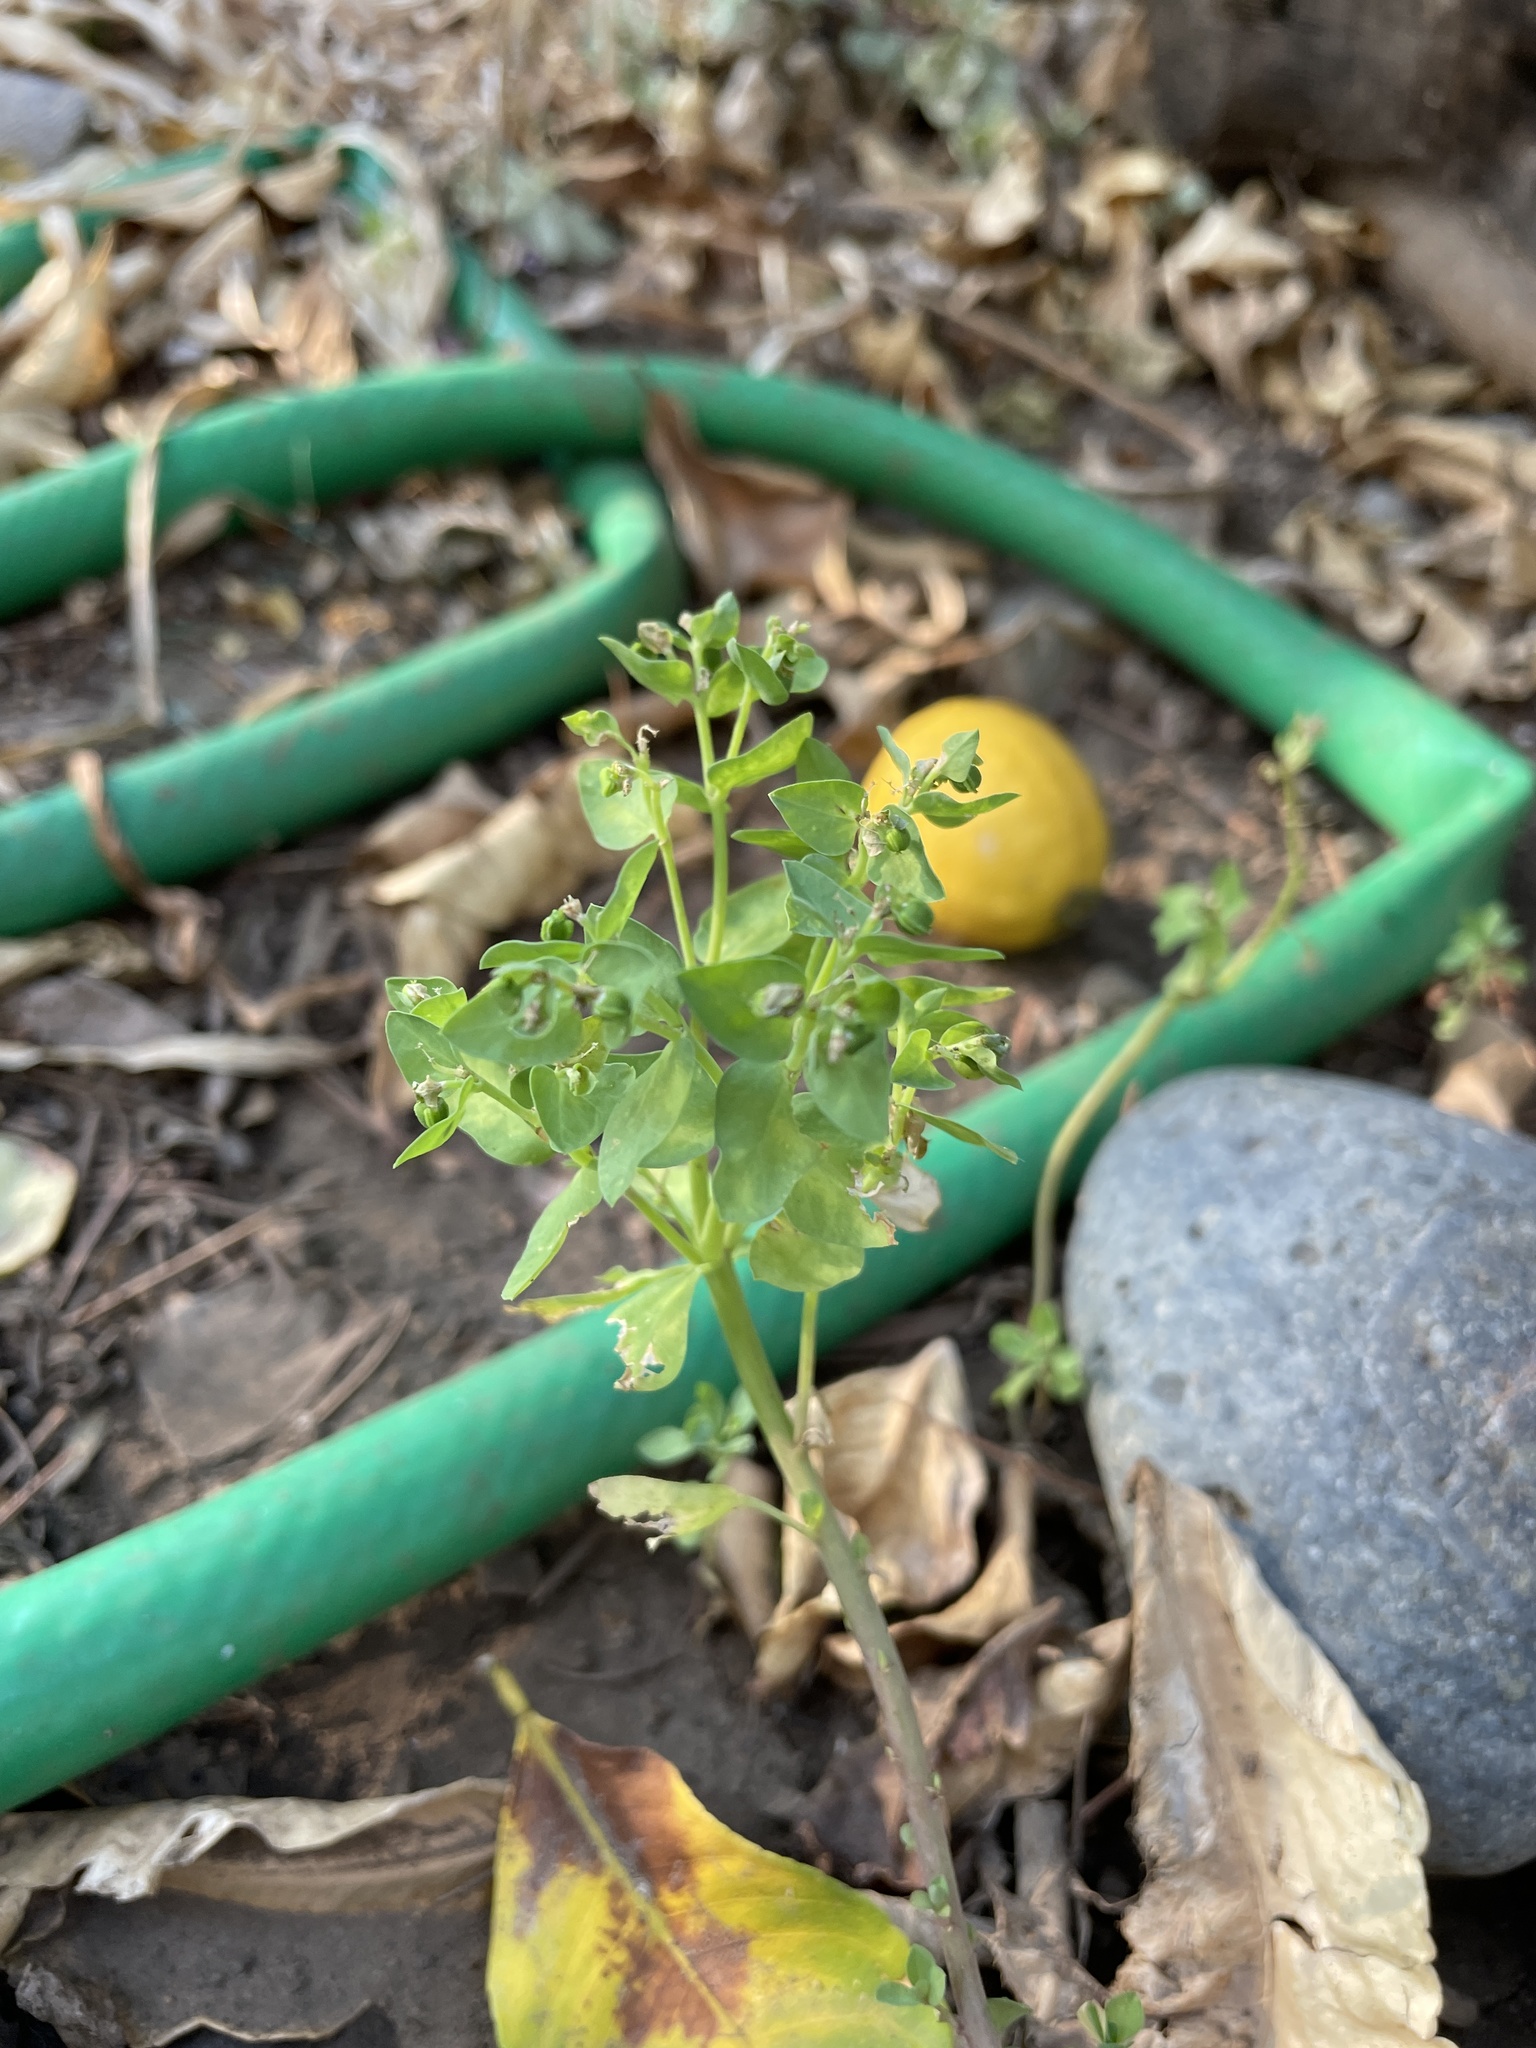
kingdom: Plantae
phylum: Tracheophyta
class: Magnoliopsida
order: Malpighiales
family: Euphorbiaceae
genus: Euphorbia
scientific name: Euphorbia peplus
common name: Petty spurge
